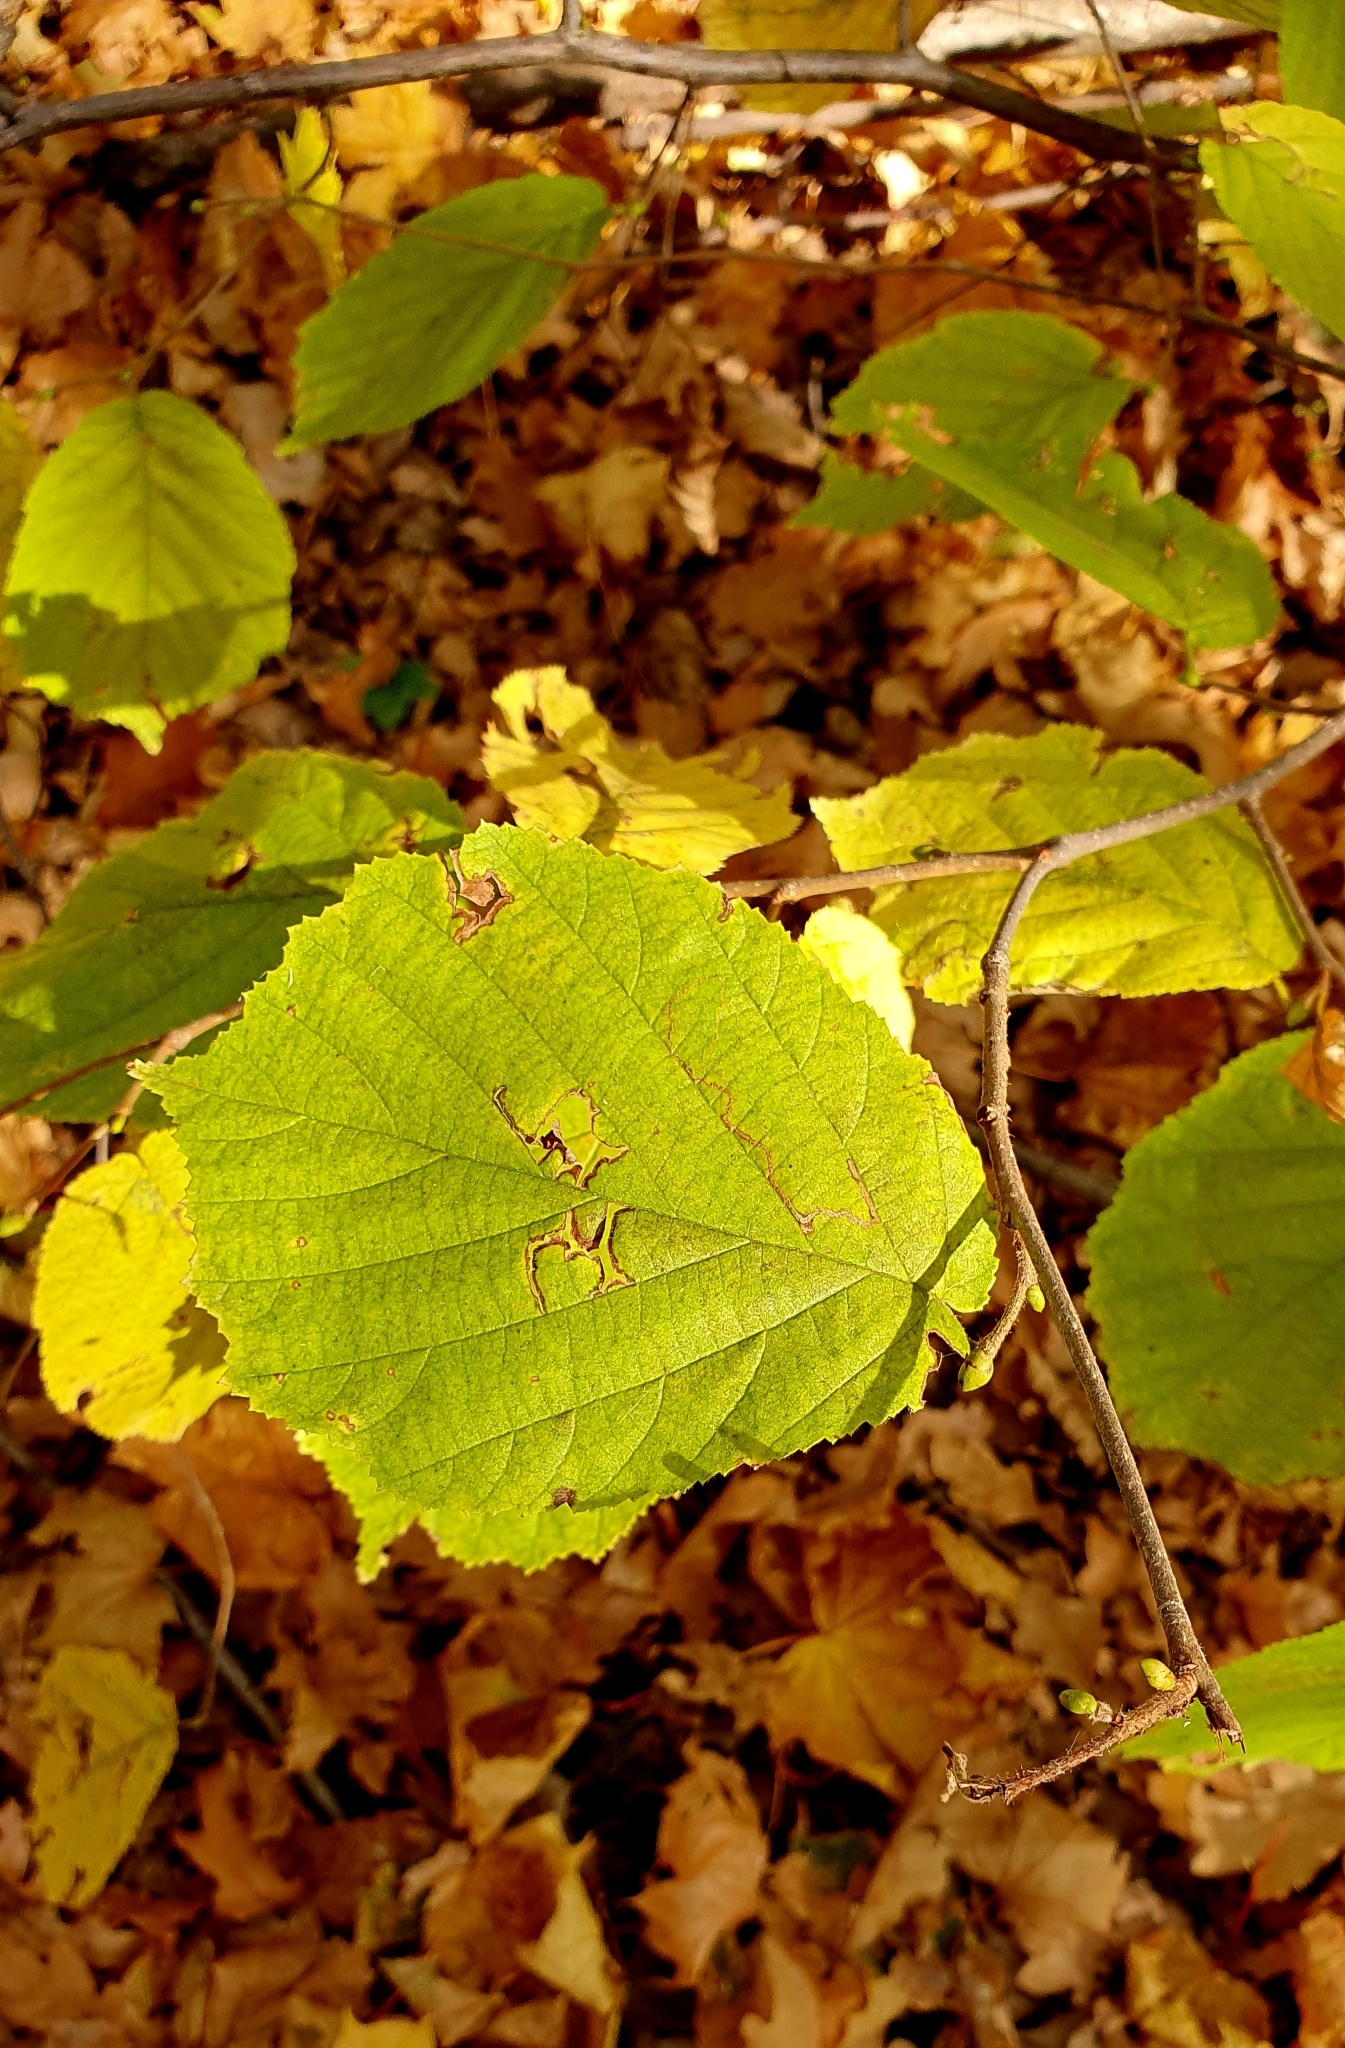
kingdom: Plantae
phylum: Tracheophyta
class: Magnoliopsida
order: Fagales
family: Betulaceae
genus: Corylus
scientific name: Corylus avellana
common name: European hazel
